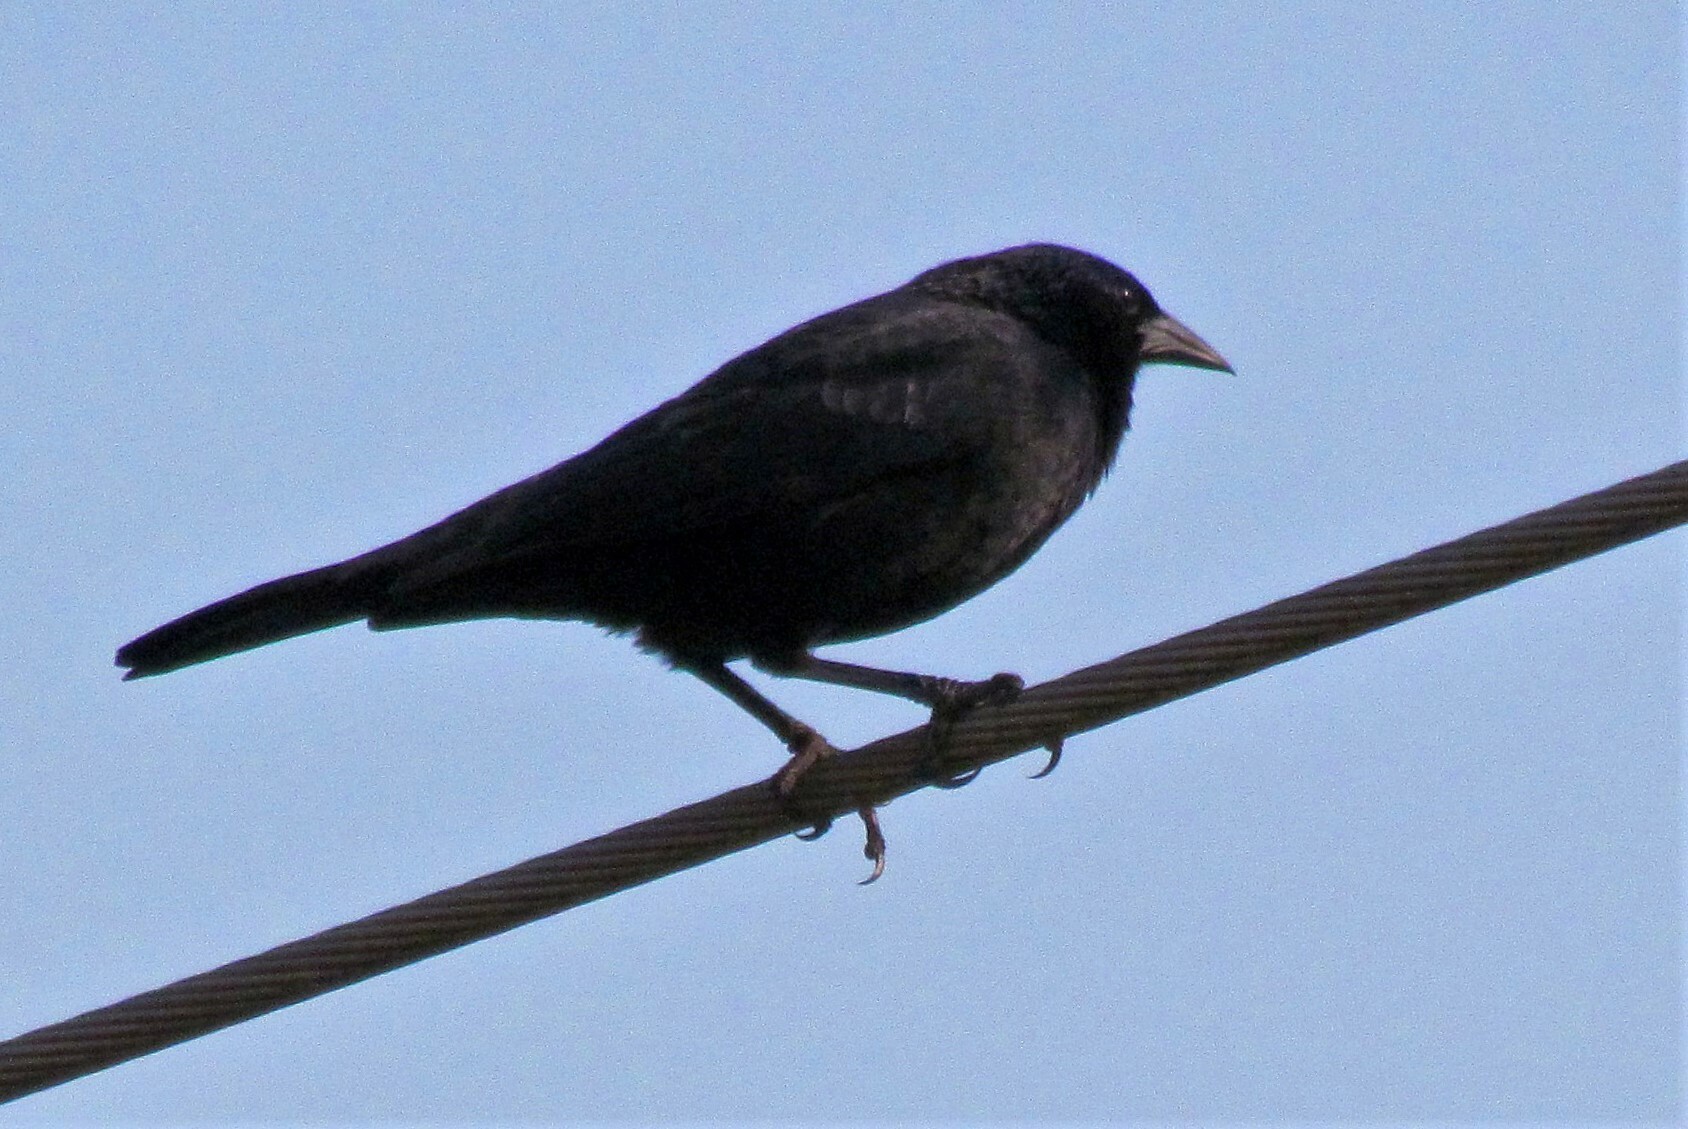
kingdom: Animalia
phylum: Chordata
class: Aves
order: Passeriformes
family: Icteridae
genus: Gnorimopsar
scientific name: Gnorimopsar chopi
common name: Chopi blackbird
